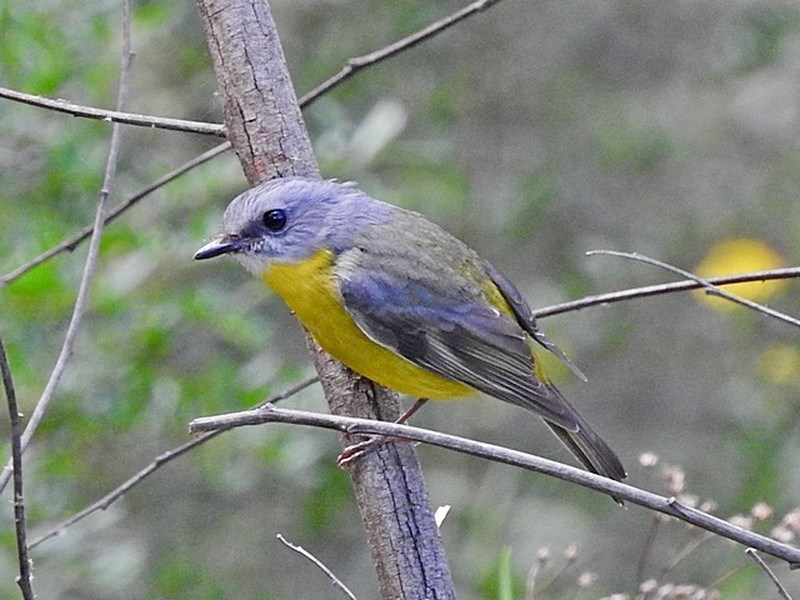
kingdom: Animalia
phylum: Chordata
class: Aves
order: Passeriformes
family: Petroicidae
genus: Eopsaltria
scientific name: Eopsaltria australis
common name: Eastern yellow robin
